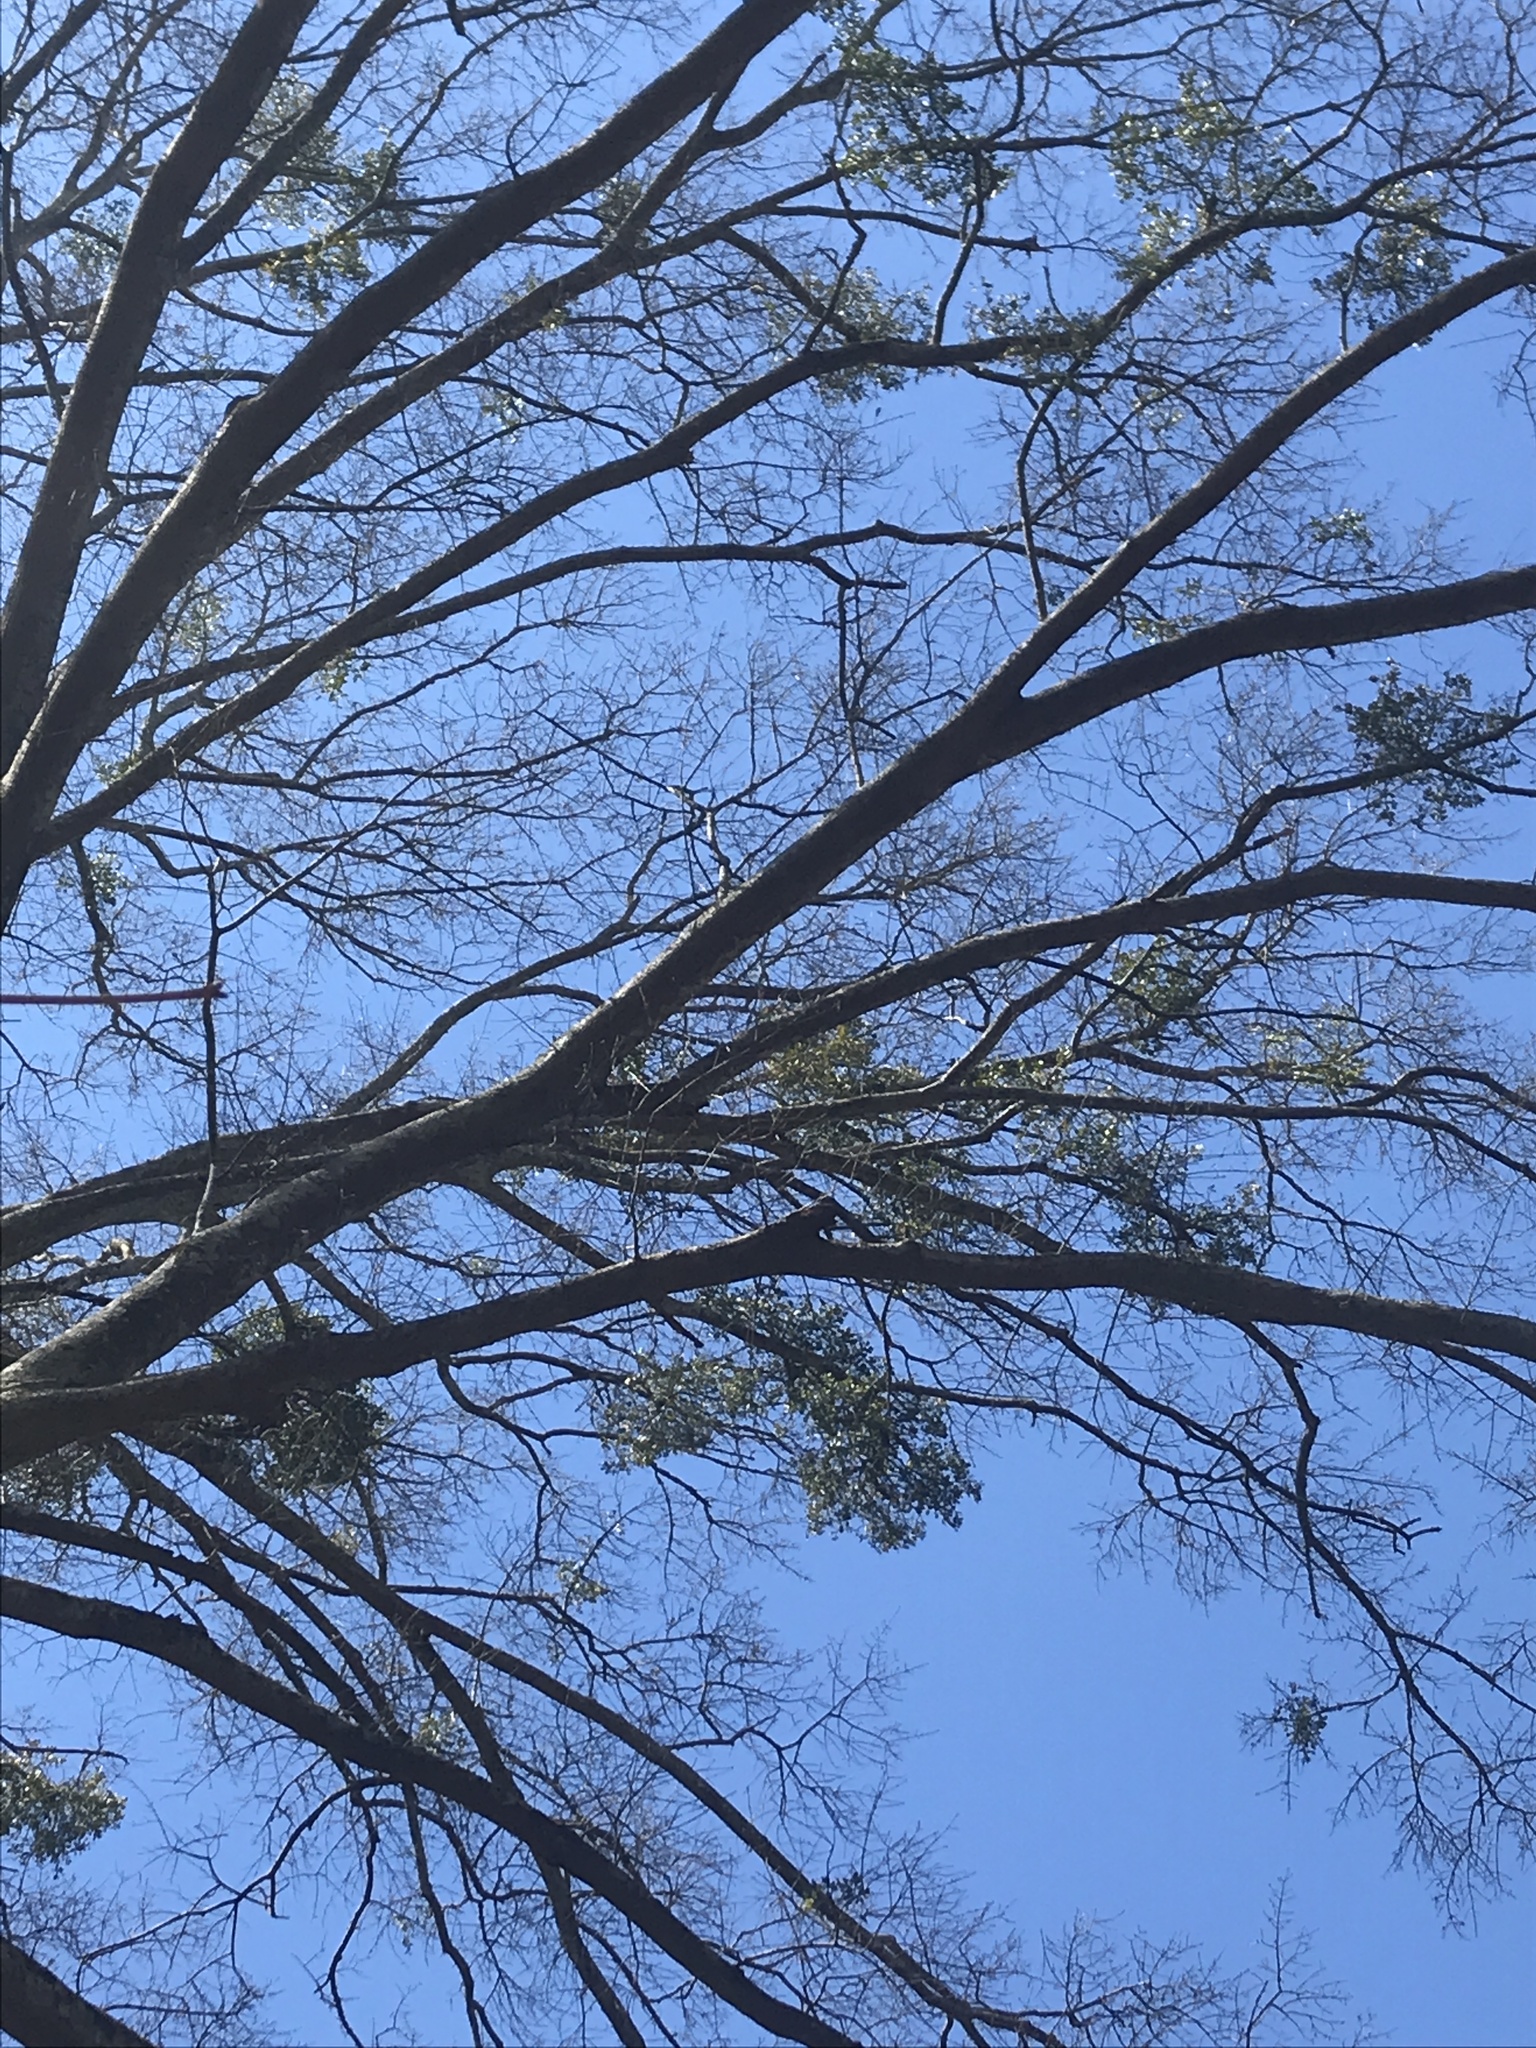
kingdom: Plantae
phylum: Tracheophyta
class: Magnoliopsida
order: Santalales
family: Viscaceae
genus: Phoradendron
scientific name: Phoradendron leucarpum
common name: Pacific mistletoe
